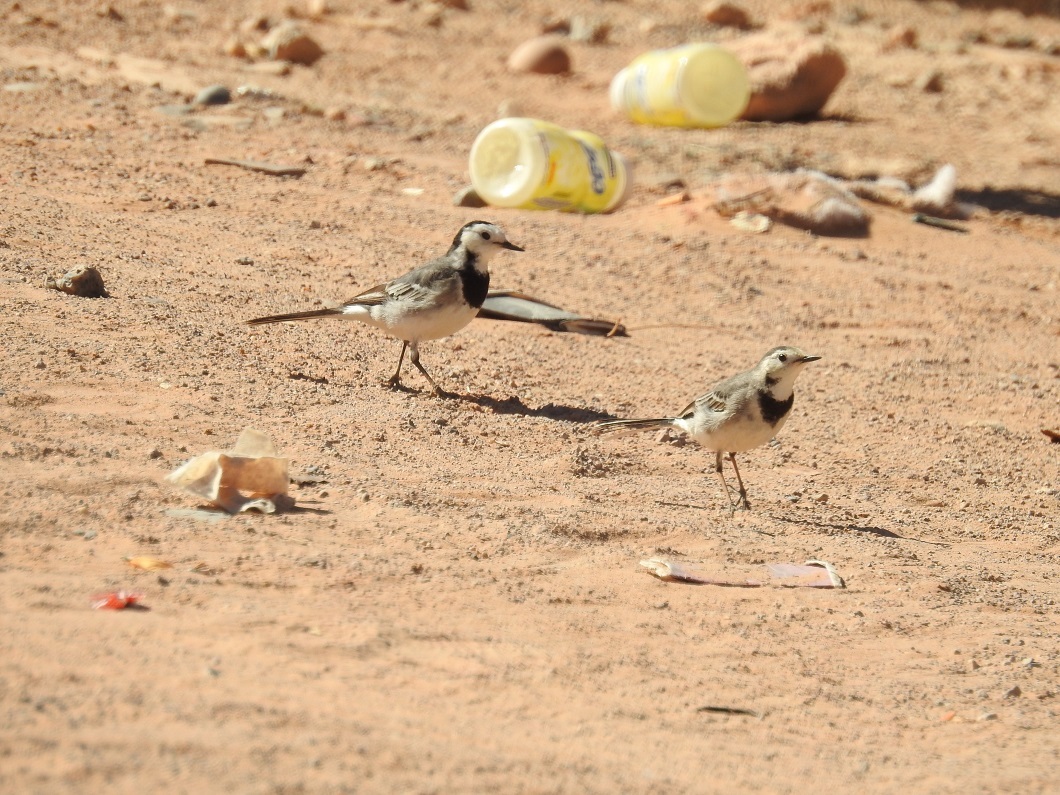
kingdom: Animalia
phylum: Chordata
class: Aves
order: Passeriformes
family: Motacillidae
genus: Motacilla
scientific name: Motacilla alba
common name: White wagtail
